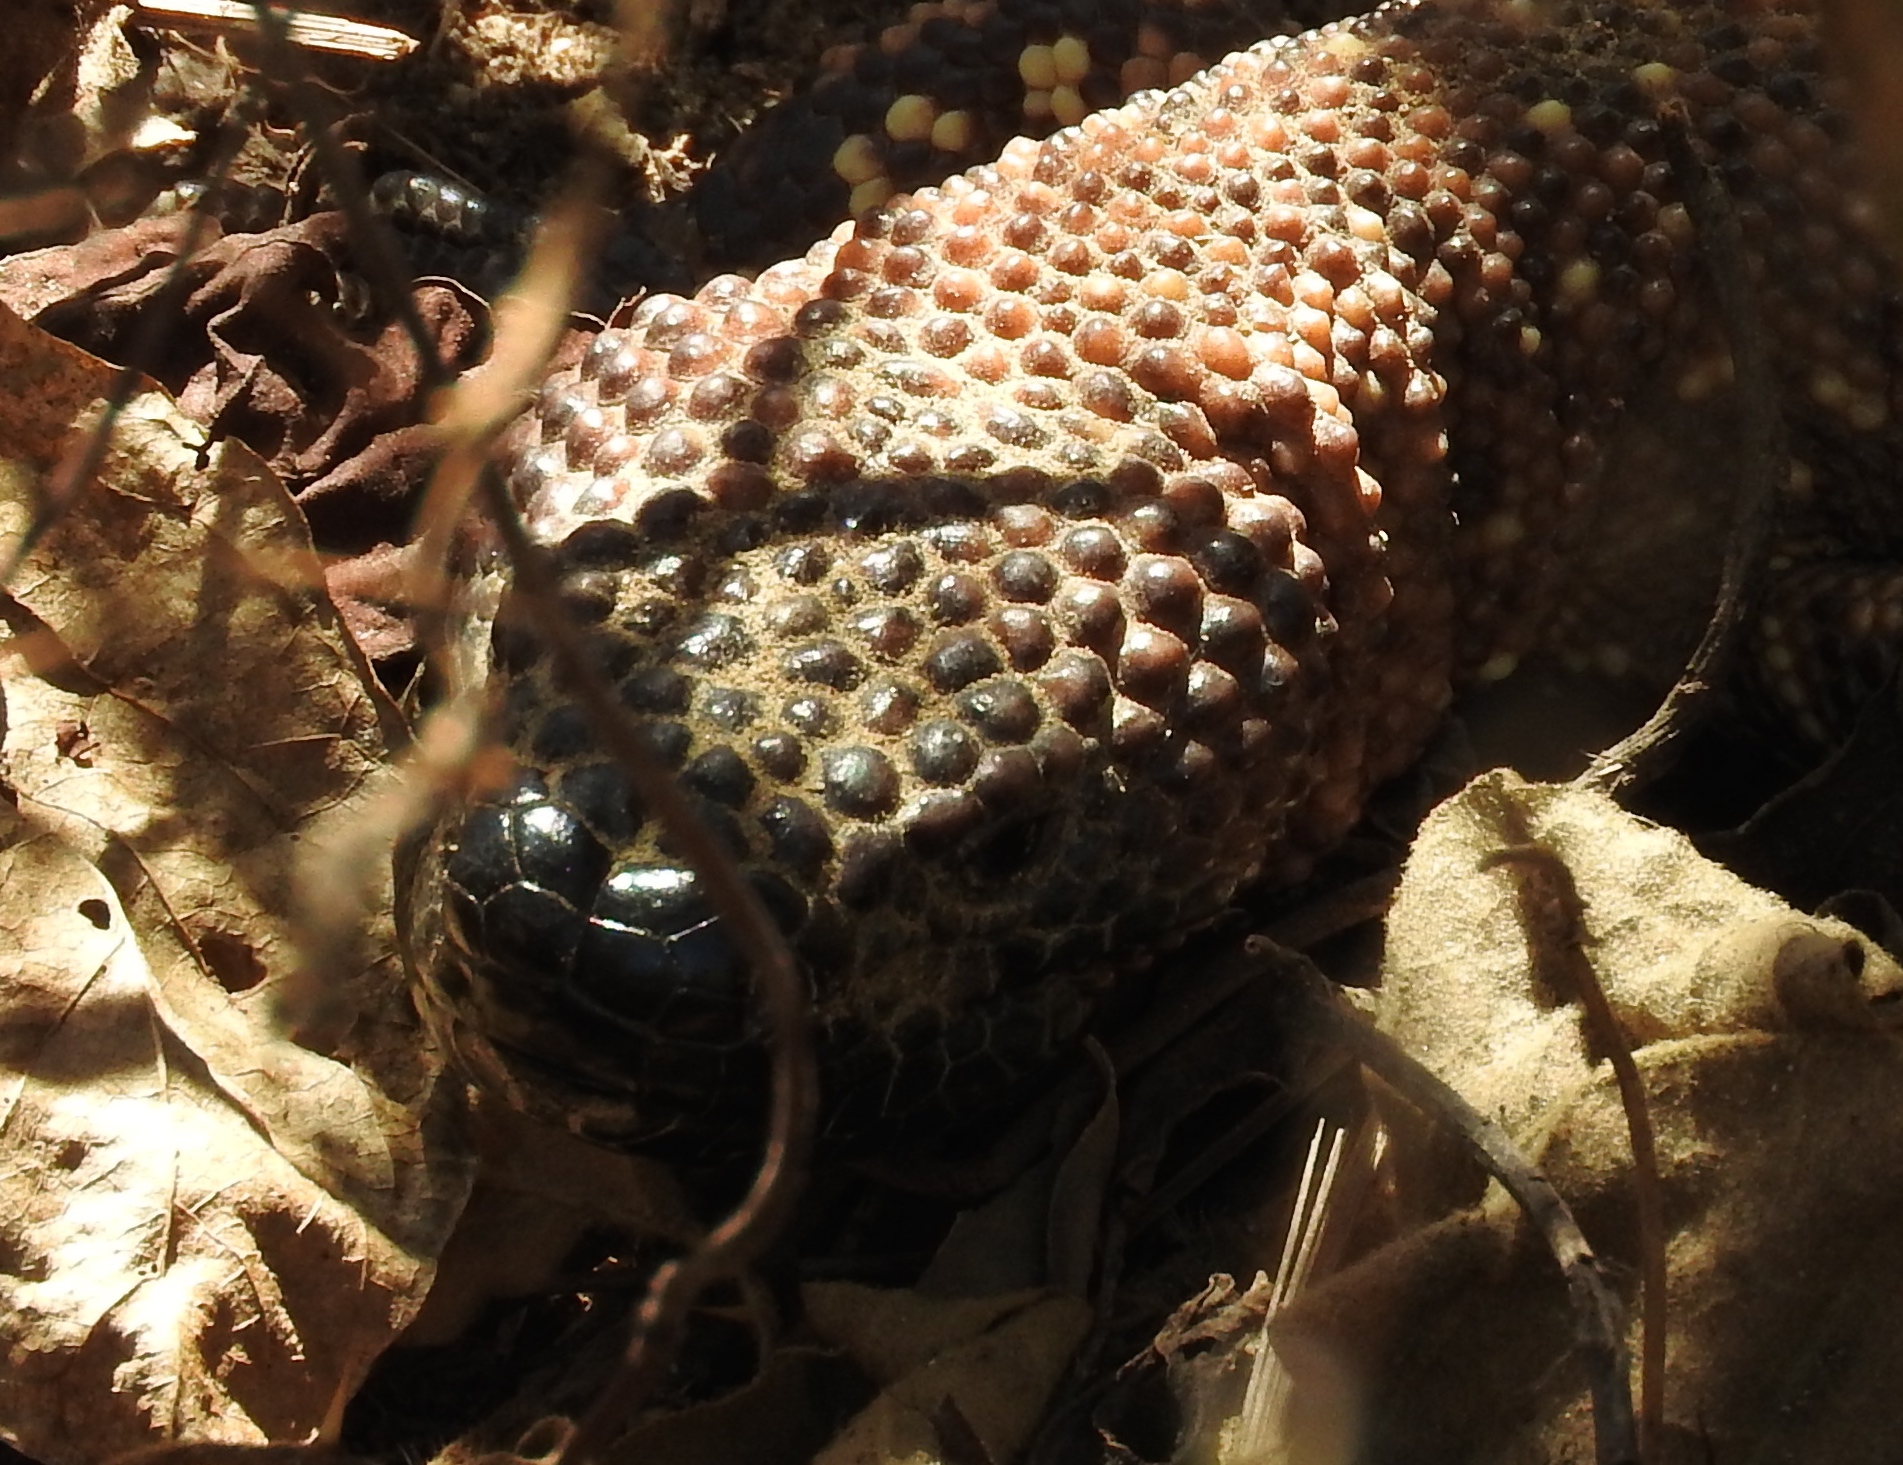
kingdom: Animalia
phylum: Chordata
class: Squamata
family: Helodermatidae
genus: Heloderma
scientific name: Heloderma horridum
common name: Mexican beaded lizard
